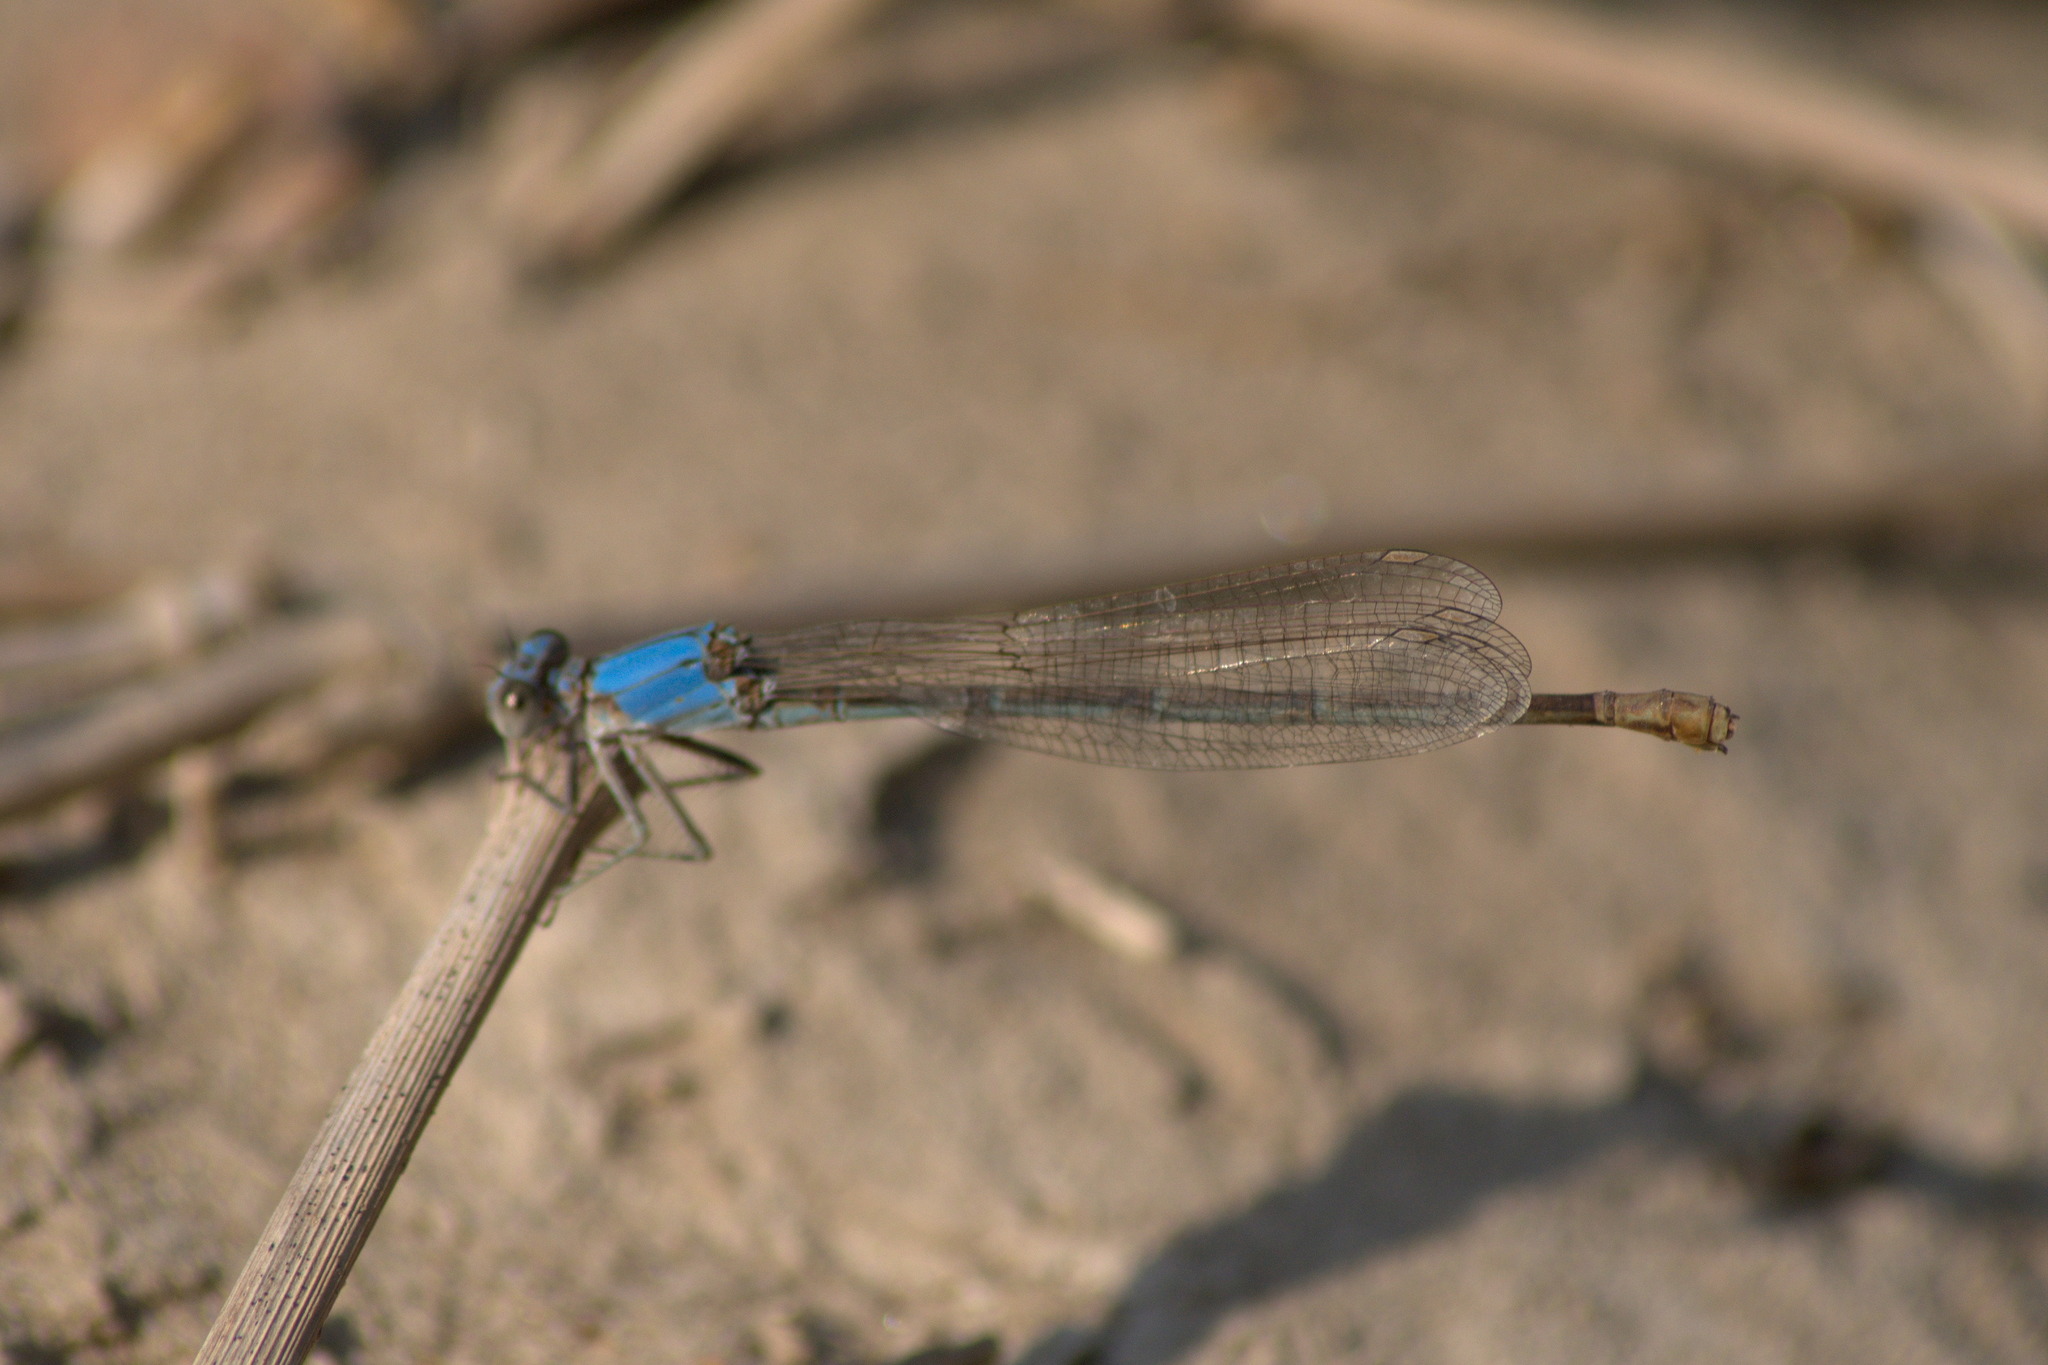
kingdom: Animalia
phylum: Arthropoda
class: Insecta
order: Odonata
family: Coenagrionidae
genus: Argia
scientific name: Argia moesta
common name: Powdered dancer
